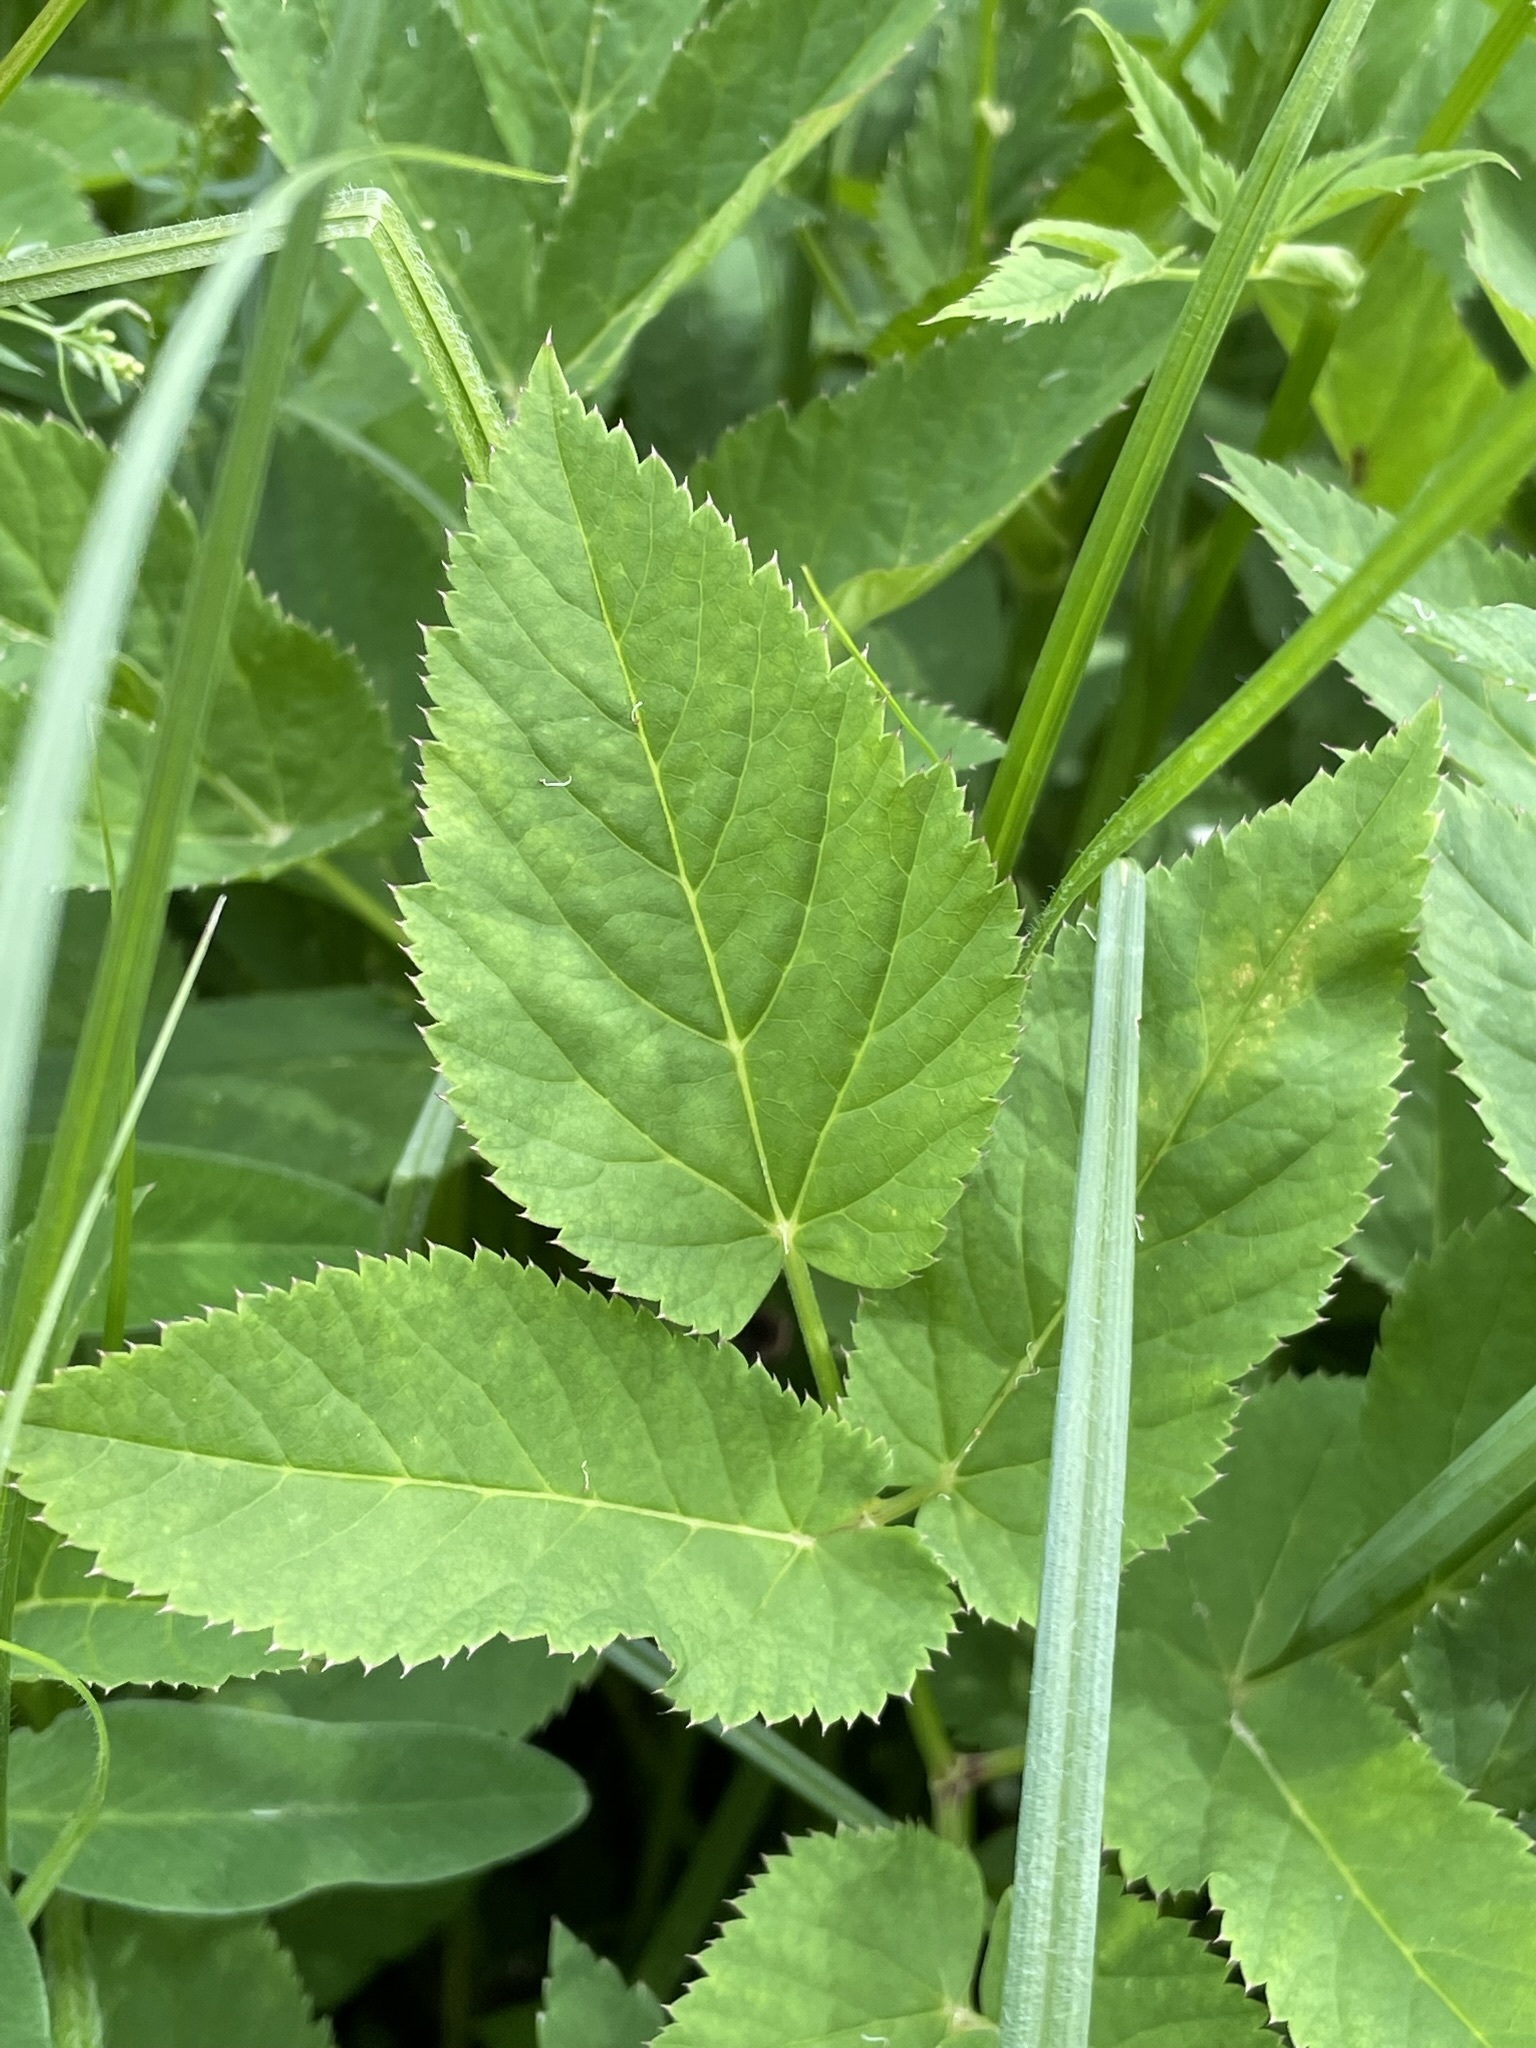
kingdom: Plantae
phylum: Tracheophyta
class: Magnoliopsida
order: Apiales
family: Apiaceae
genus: Aegopodium
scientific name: Aegopodium podagraria
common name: Ground-elder
